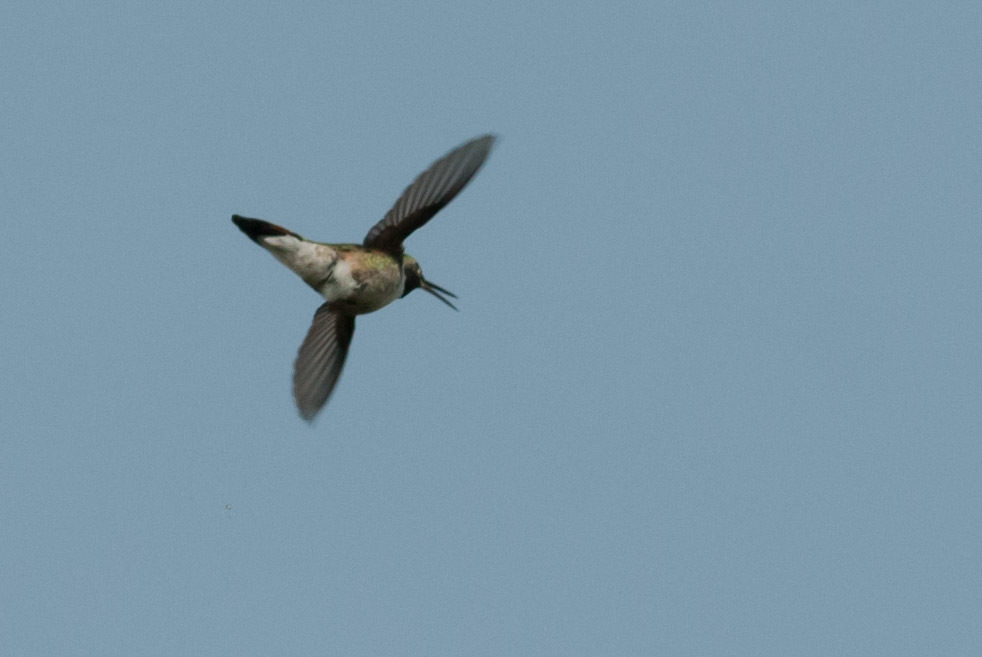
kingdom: Animalia
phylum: Chordata
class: Aves
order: Apodiformes
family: Trochilidae
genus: Selasphorus
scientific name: Selasphorus platycercus
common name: Broad-tailed hummingbird
